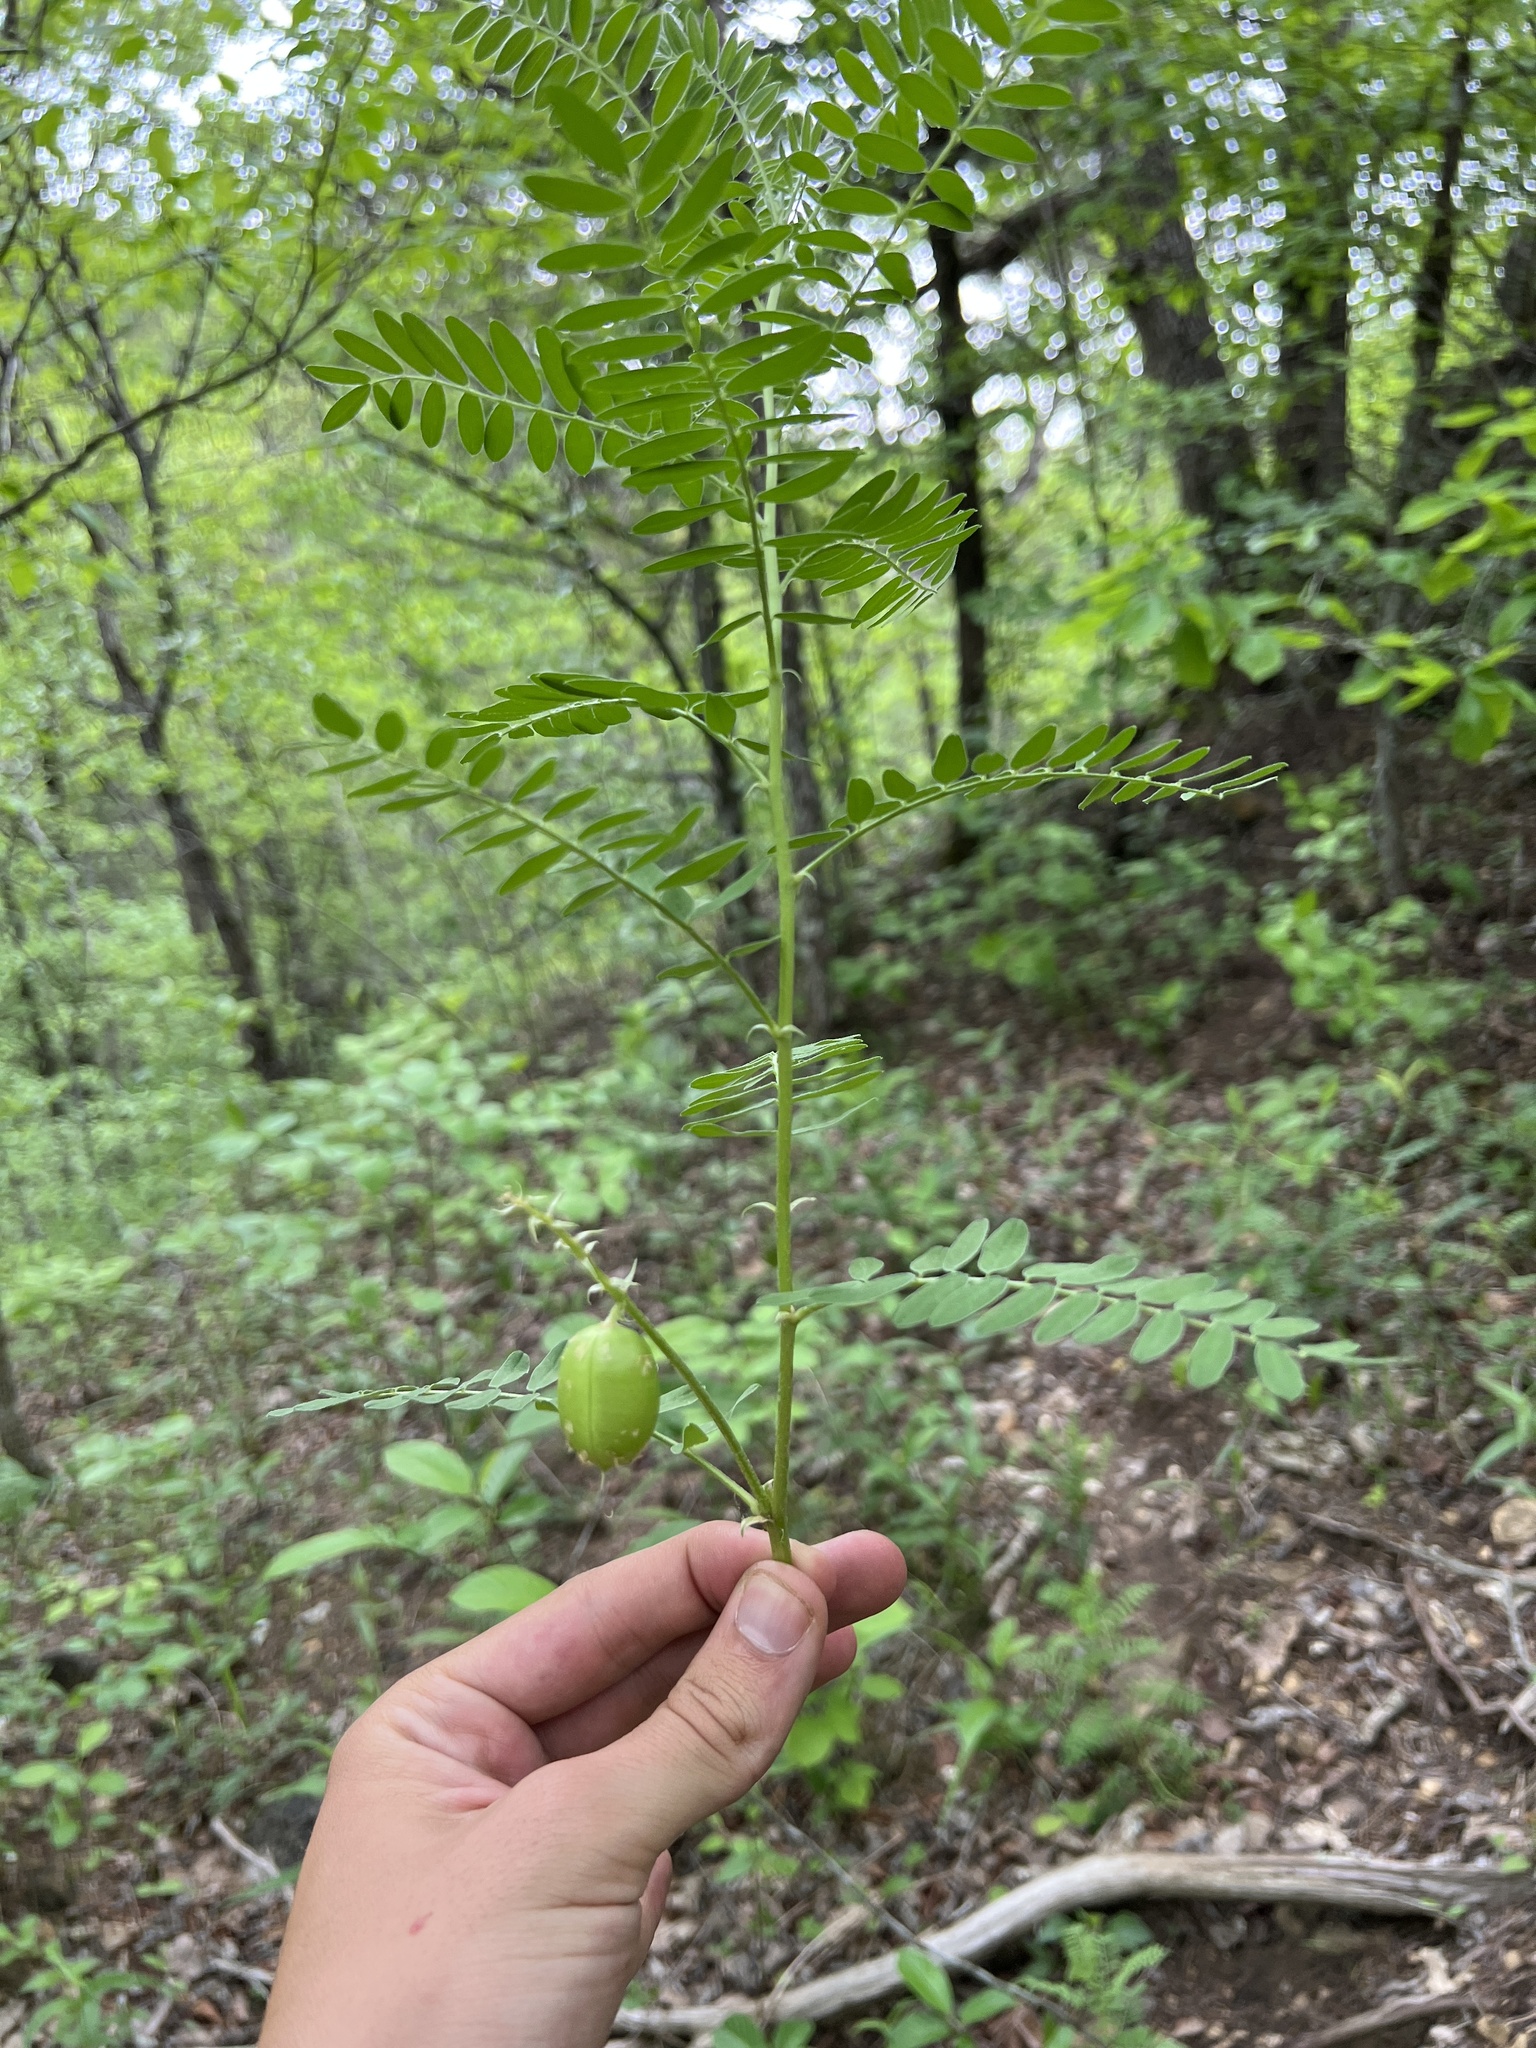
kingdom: Plantae
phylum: Tracheophyta
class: Magnoliopsida
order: Fabales
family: Fabaceae
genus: Astragalus
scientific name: Astragalus crassicarpus
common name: Ground-plum milk-vetch
